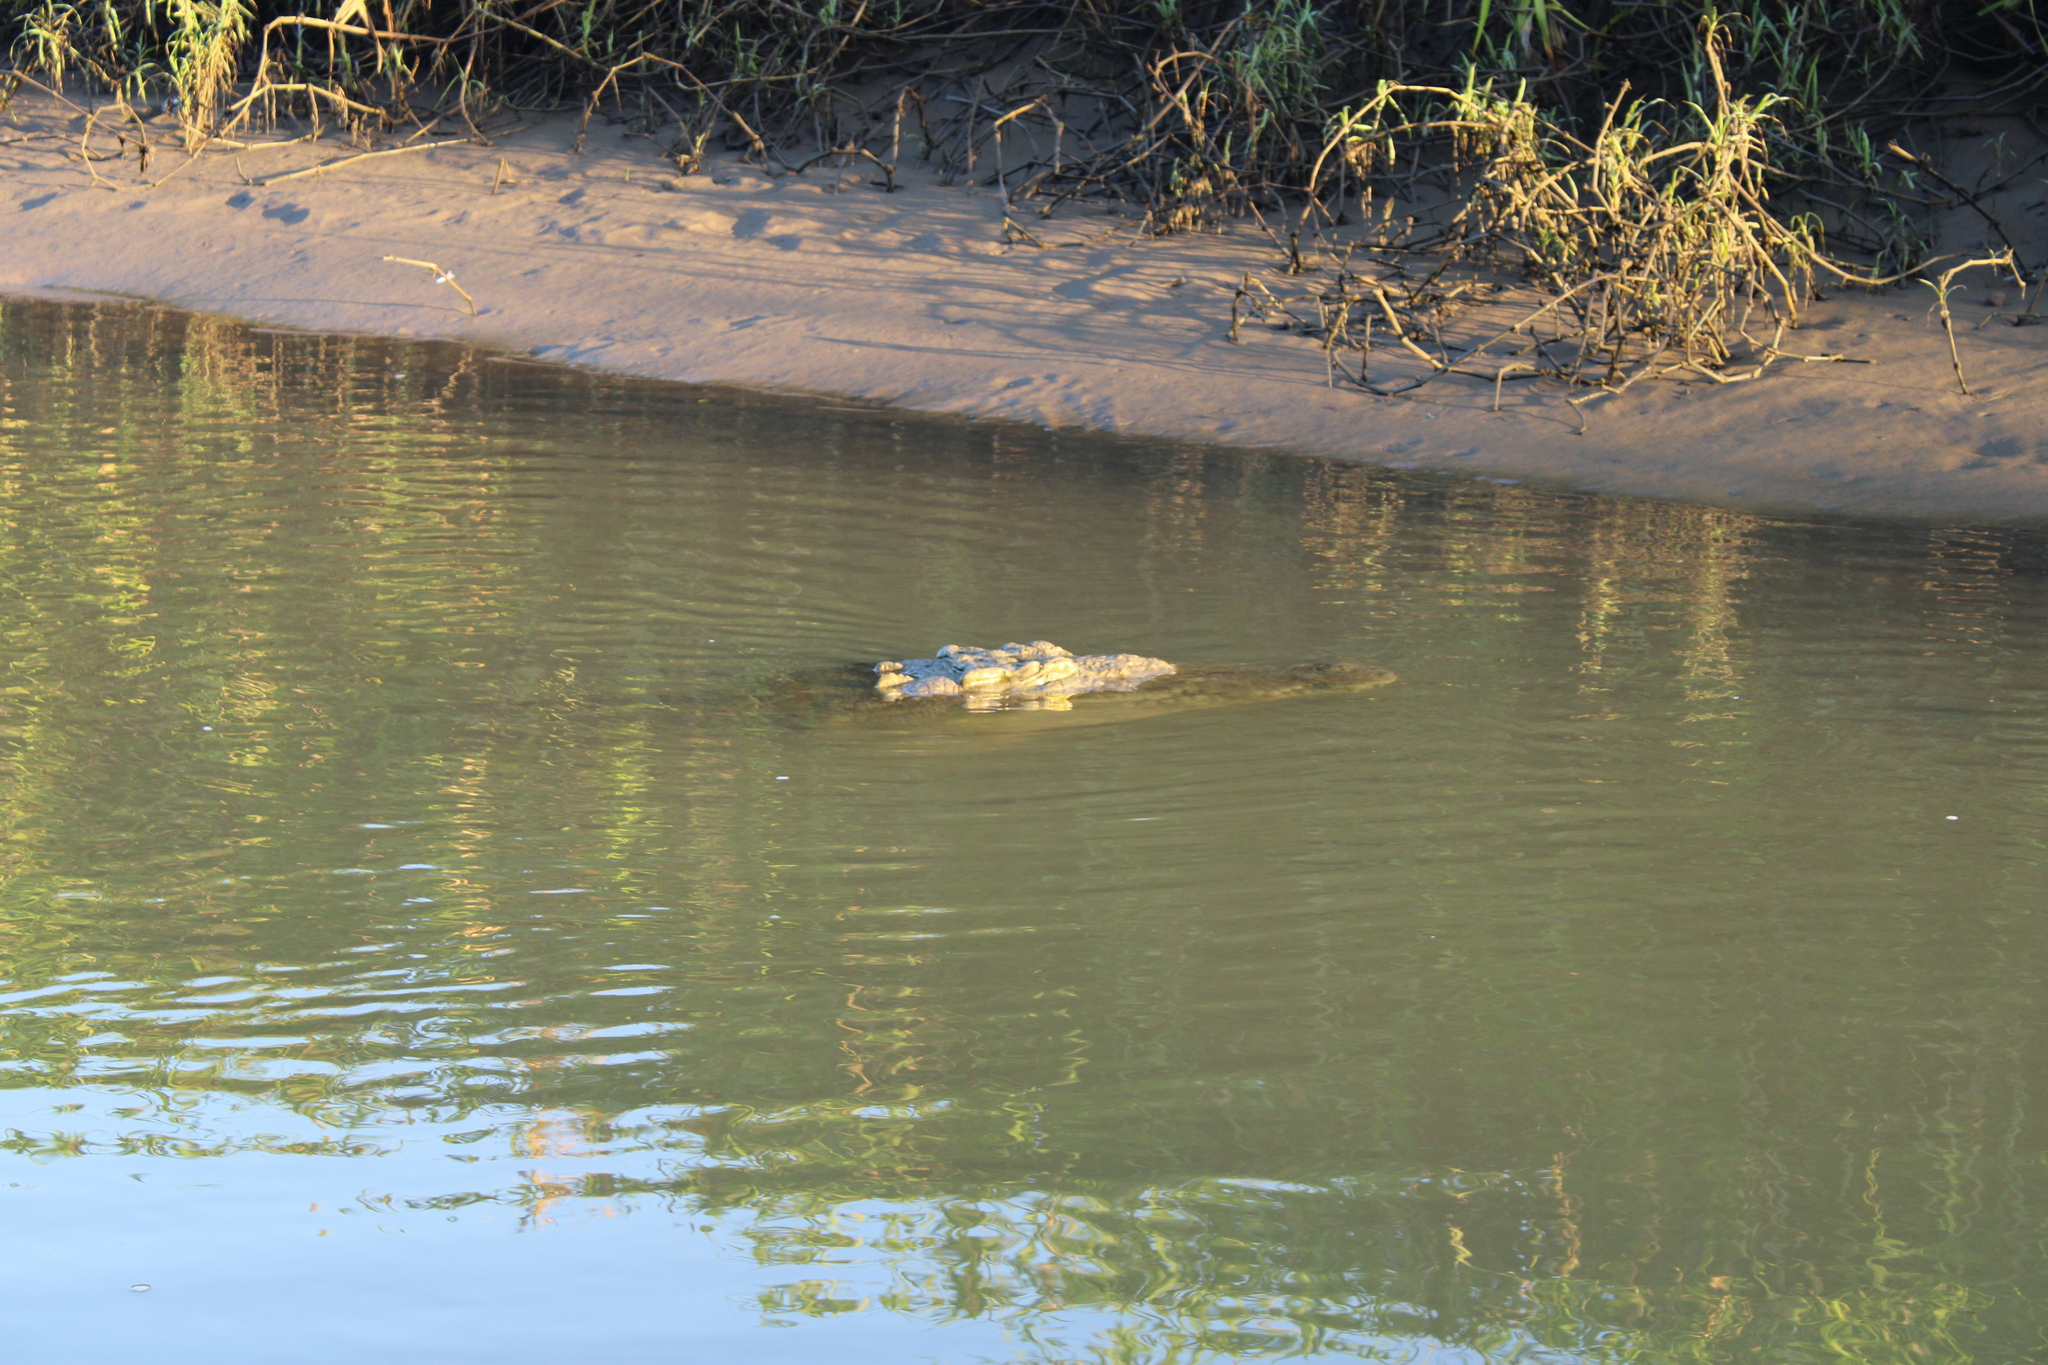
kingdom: Animalia
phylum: Chordata
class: Crocodylia
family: Crocodylidae
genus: Crocodylus
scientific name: Crocodylus acutus
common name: American crocodile
